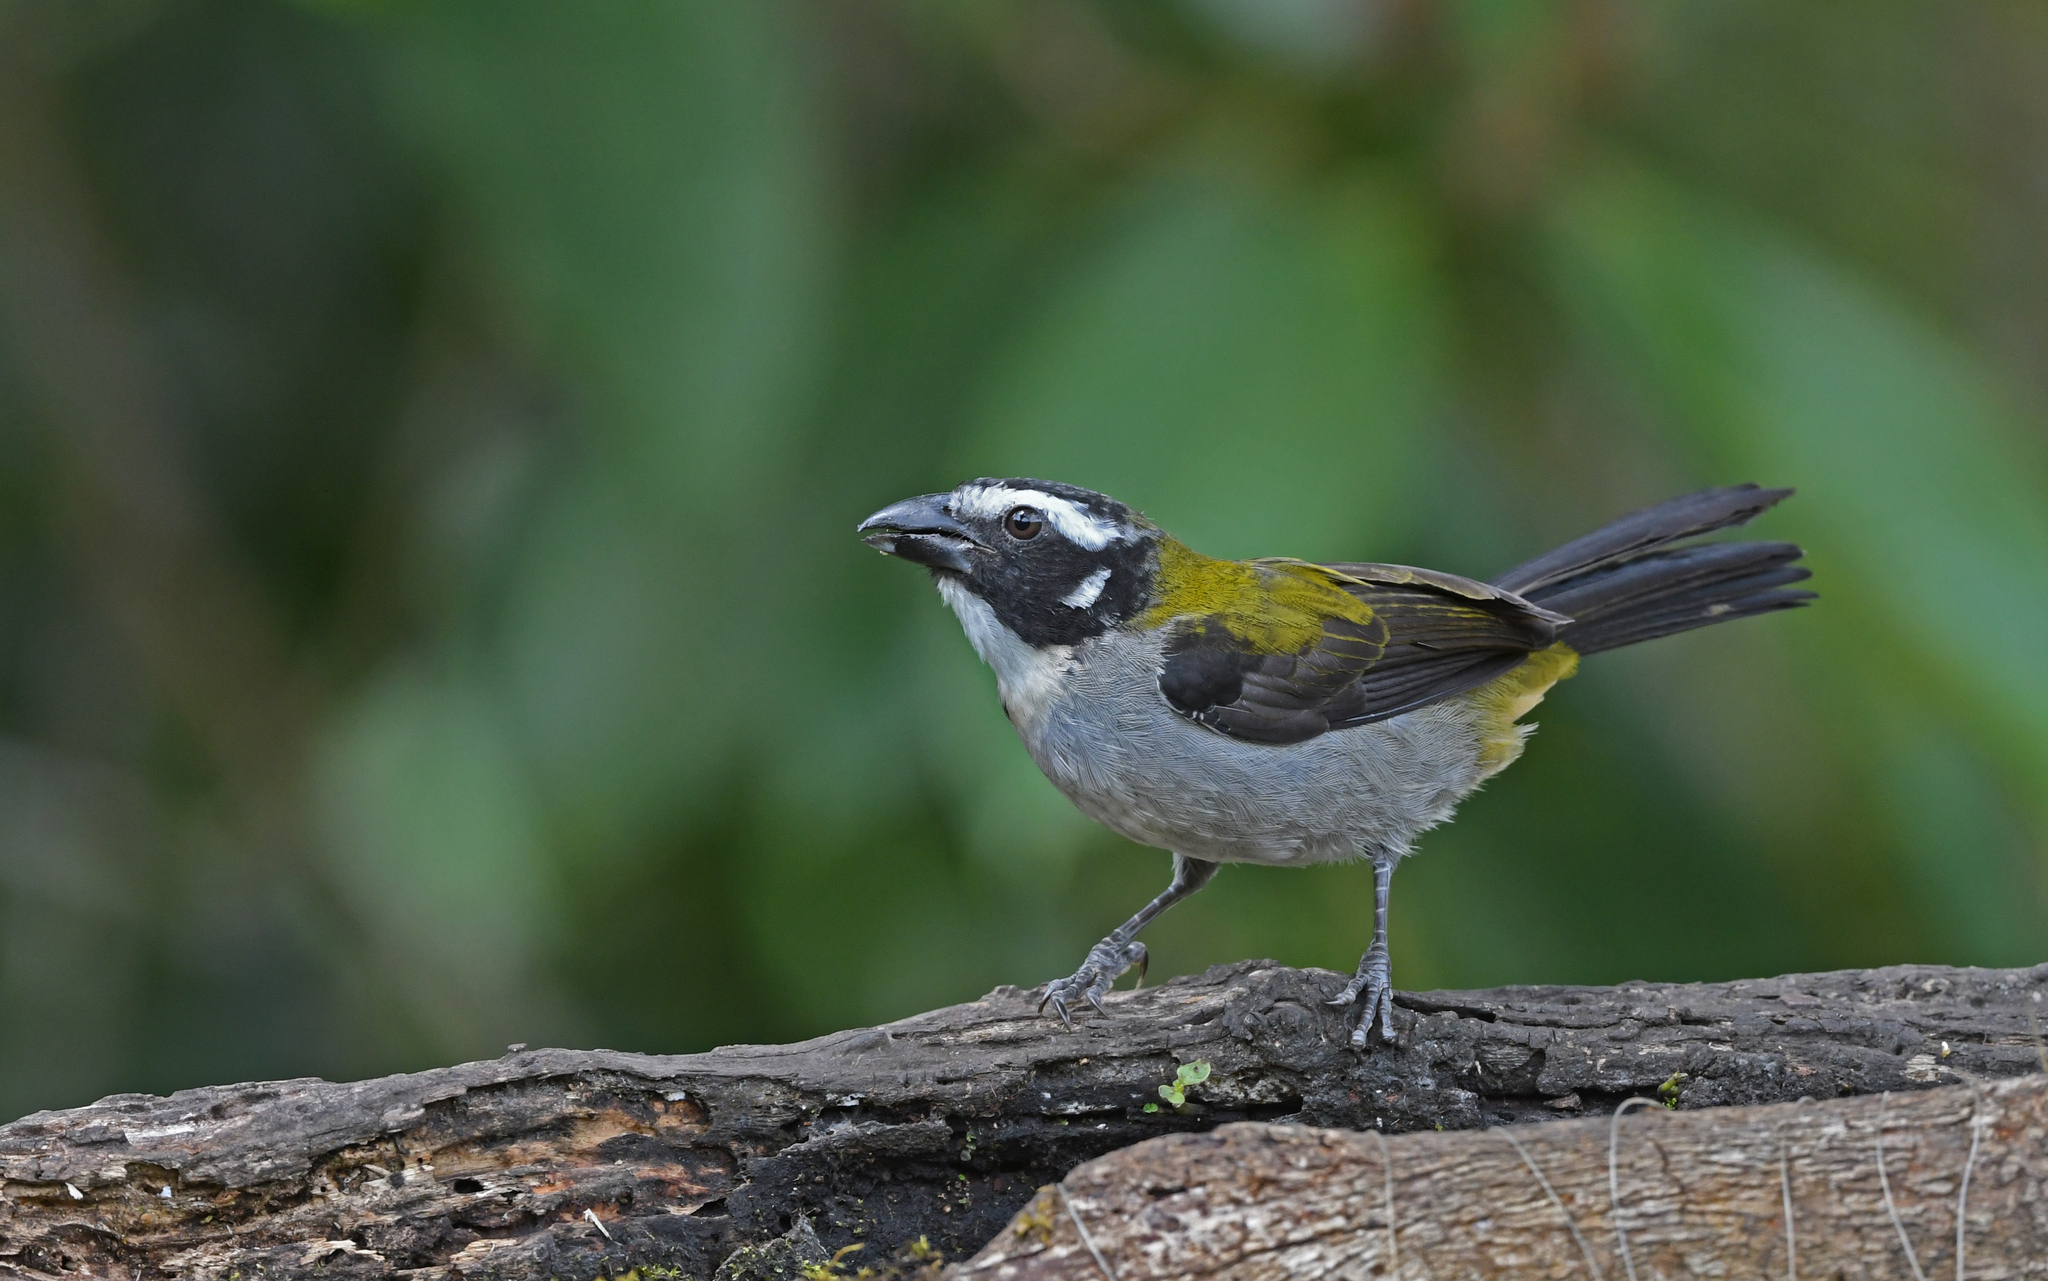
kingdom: Animalia
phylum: Chordata
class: Aves
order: Passeriformes
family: Thraupidae
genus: Saltator
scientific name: Saltator atripennis
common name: Black-winged saltator
